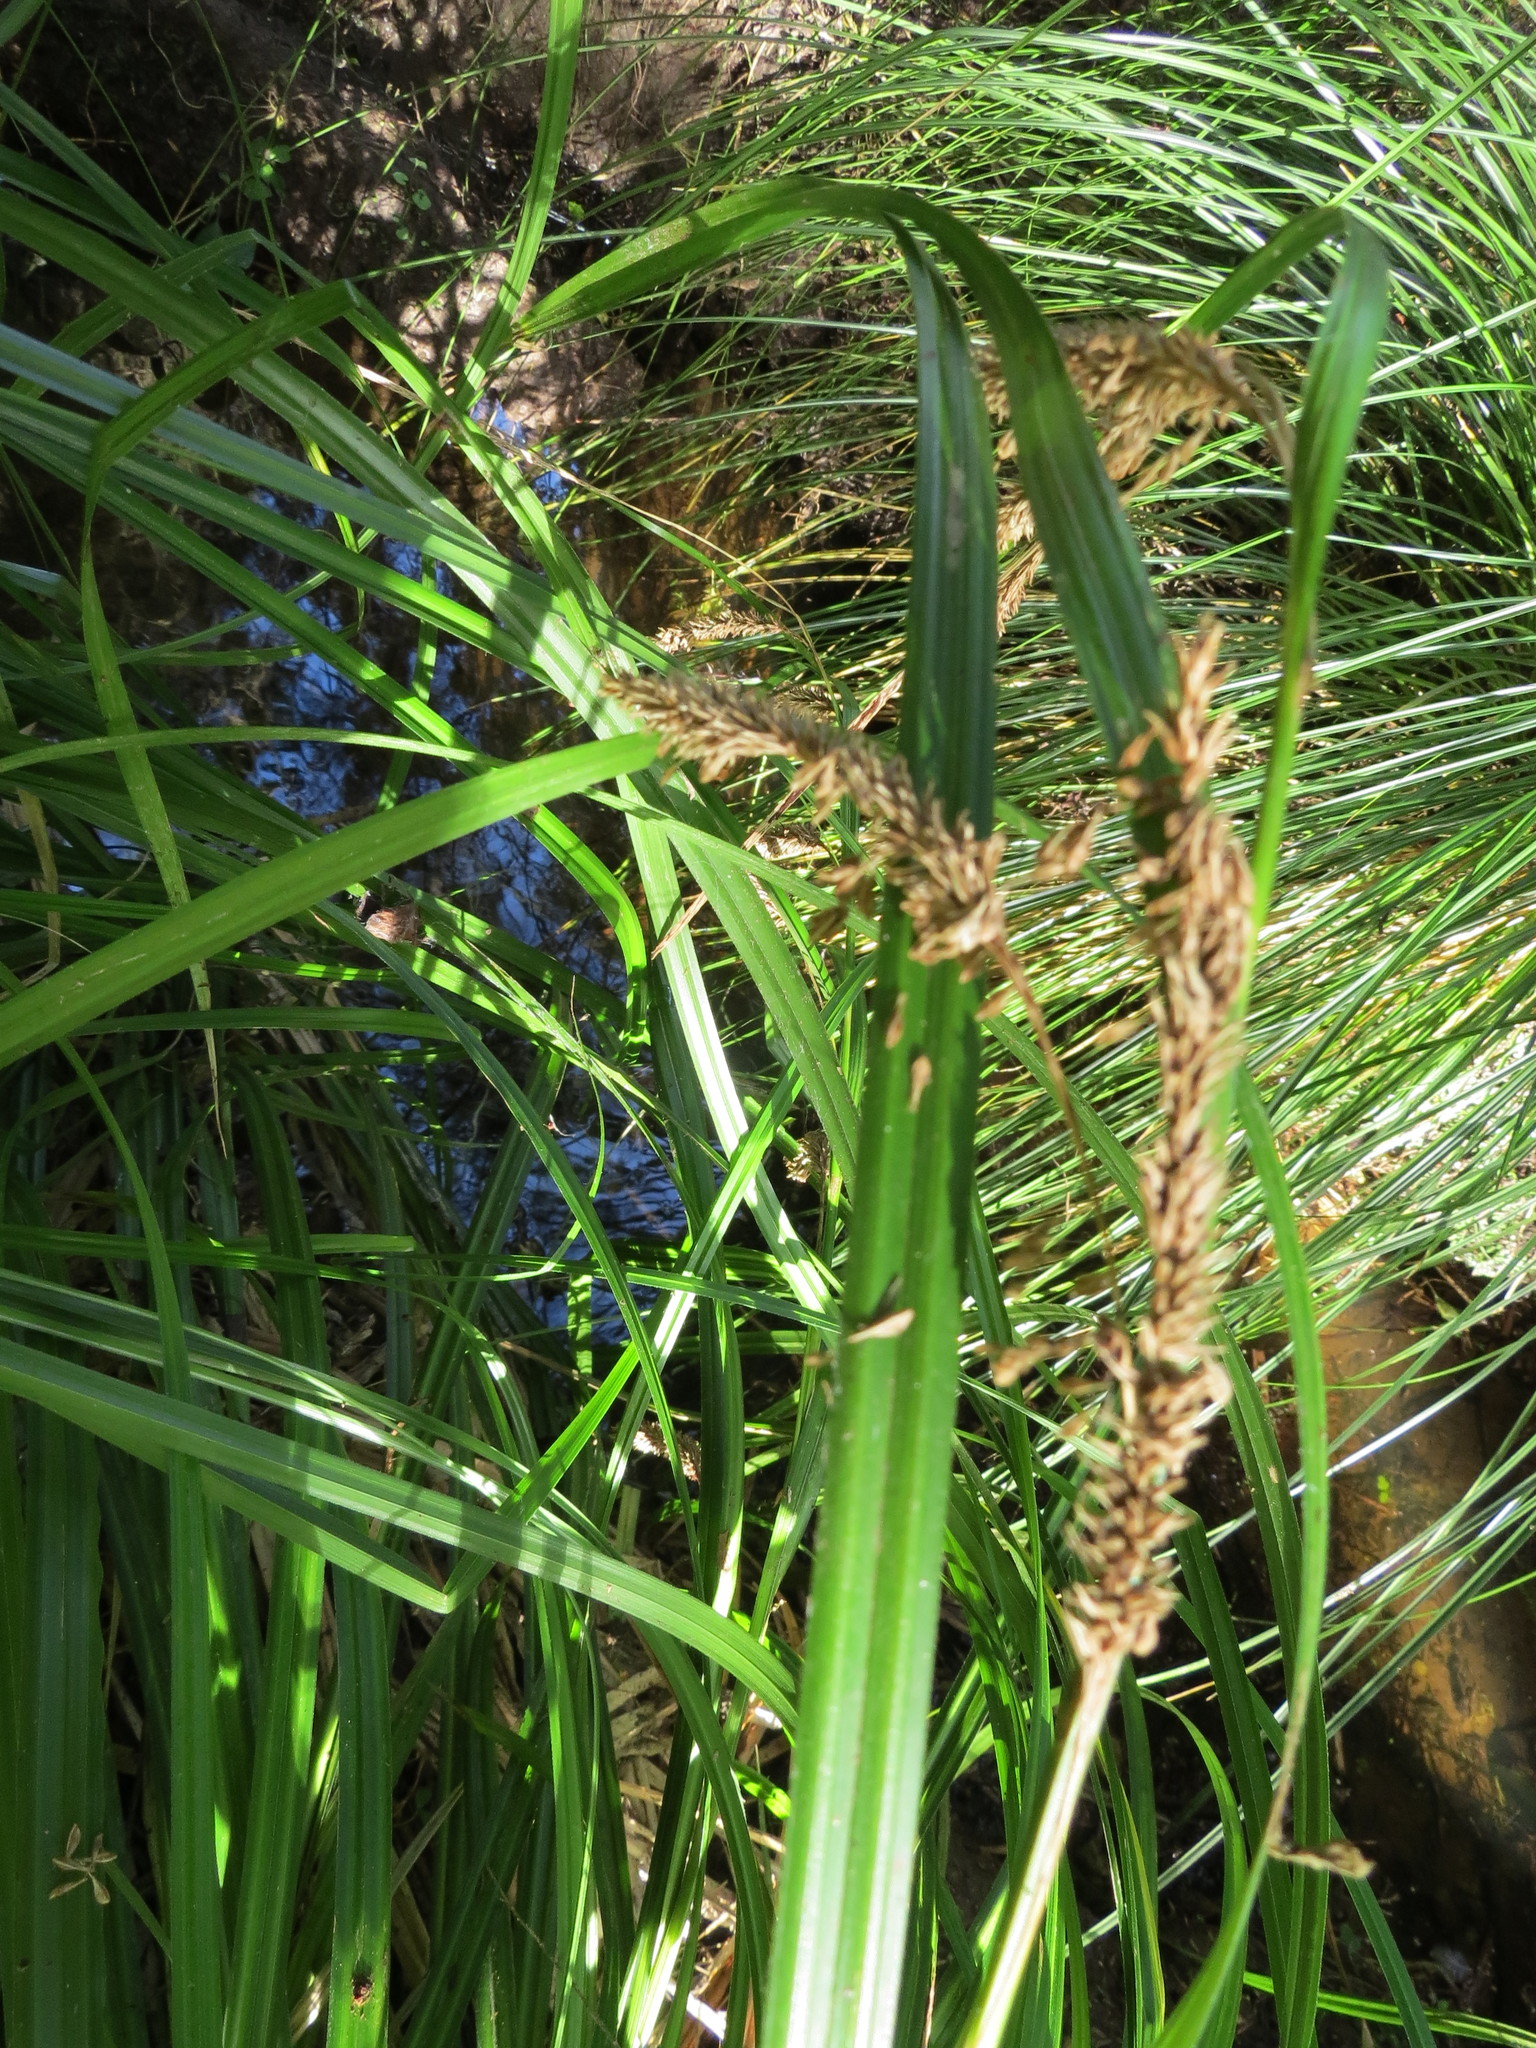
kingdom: Plantae
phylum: Tracheophyta
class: Liliopsida
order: Poales
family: Cyperaceae
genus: Carex
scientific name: Carex forsteri
